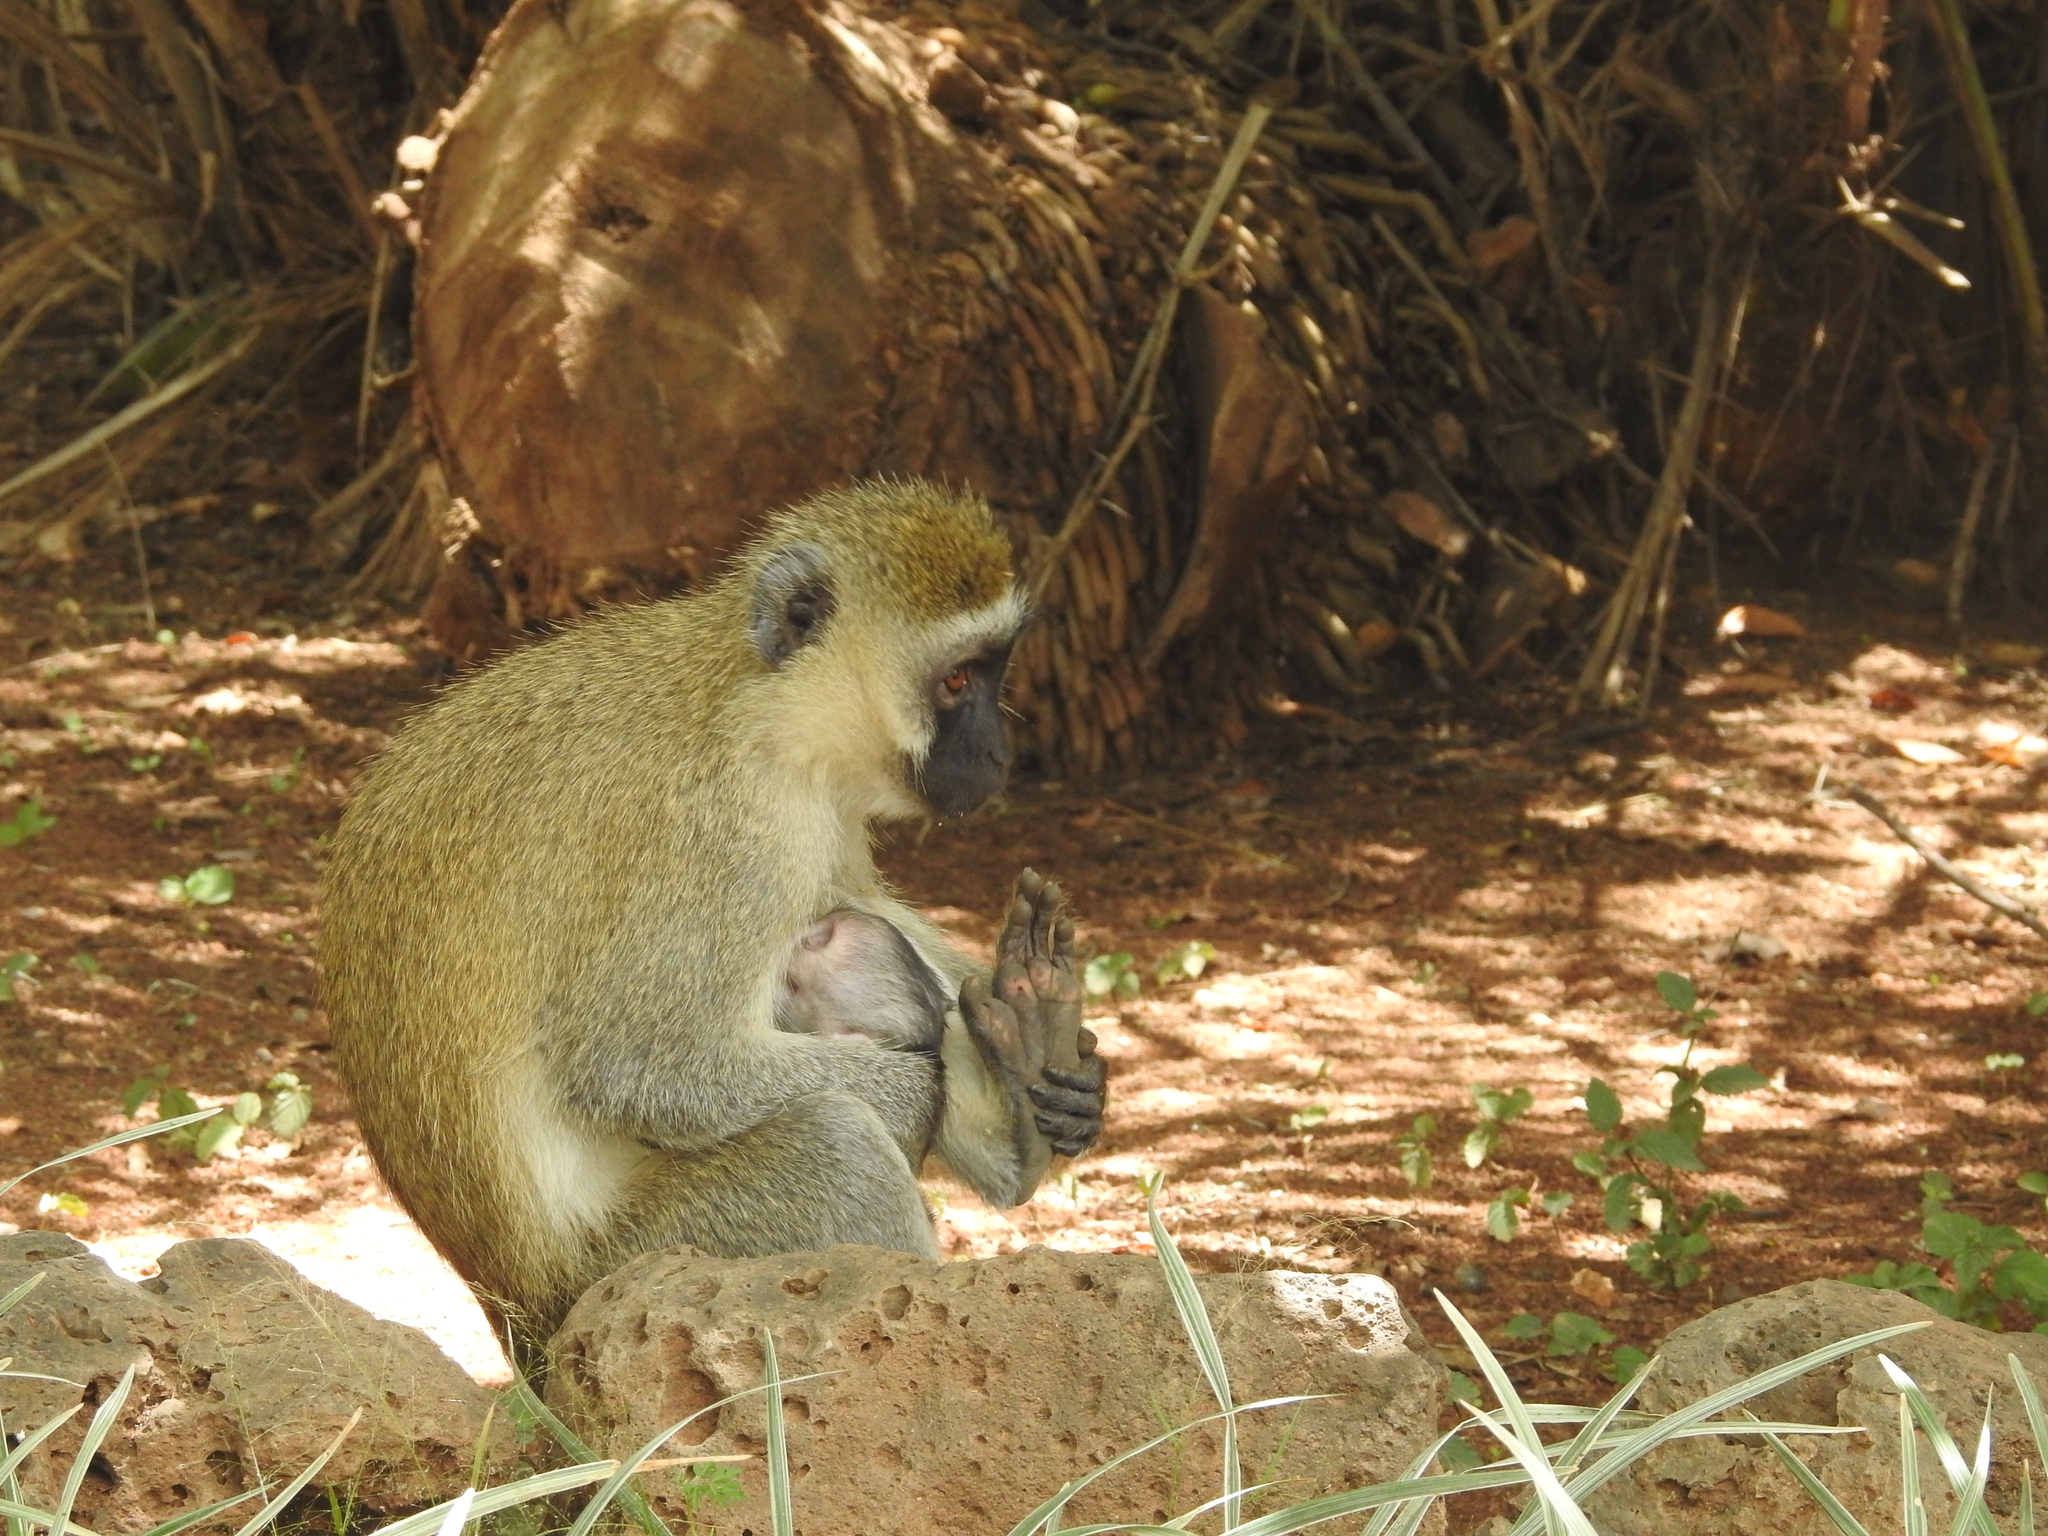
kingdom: Animalia
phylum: Chordata
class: Mammalia
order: Primates
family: Cercopithecidae
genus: Chlorocebus
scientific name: Chlorocebus pygerythrus
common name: Vervet monkey
